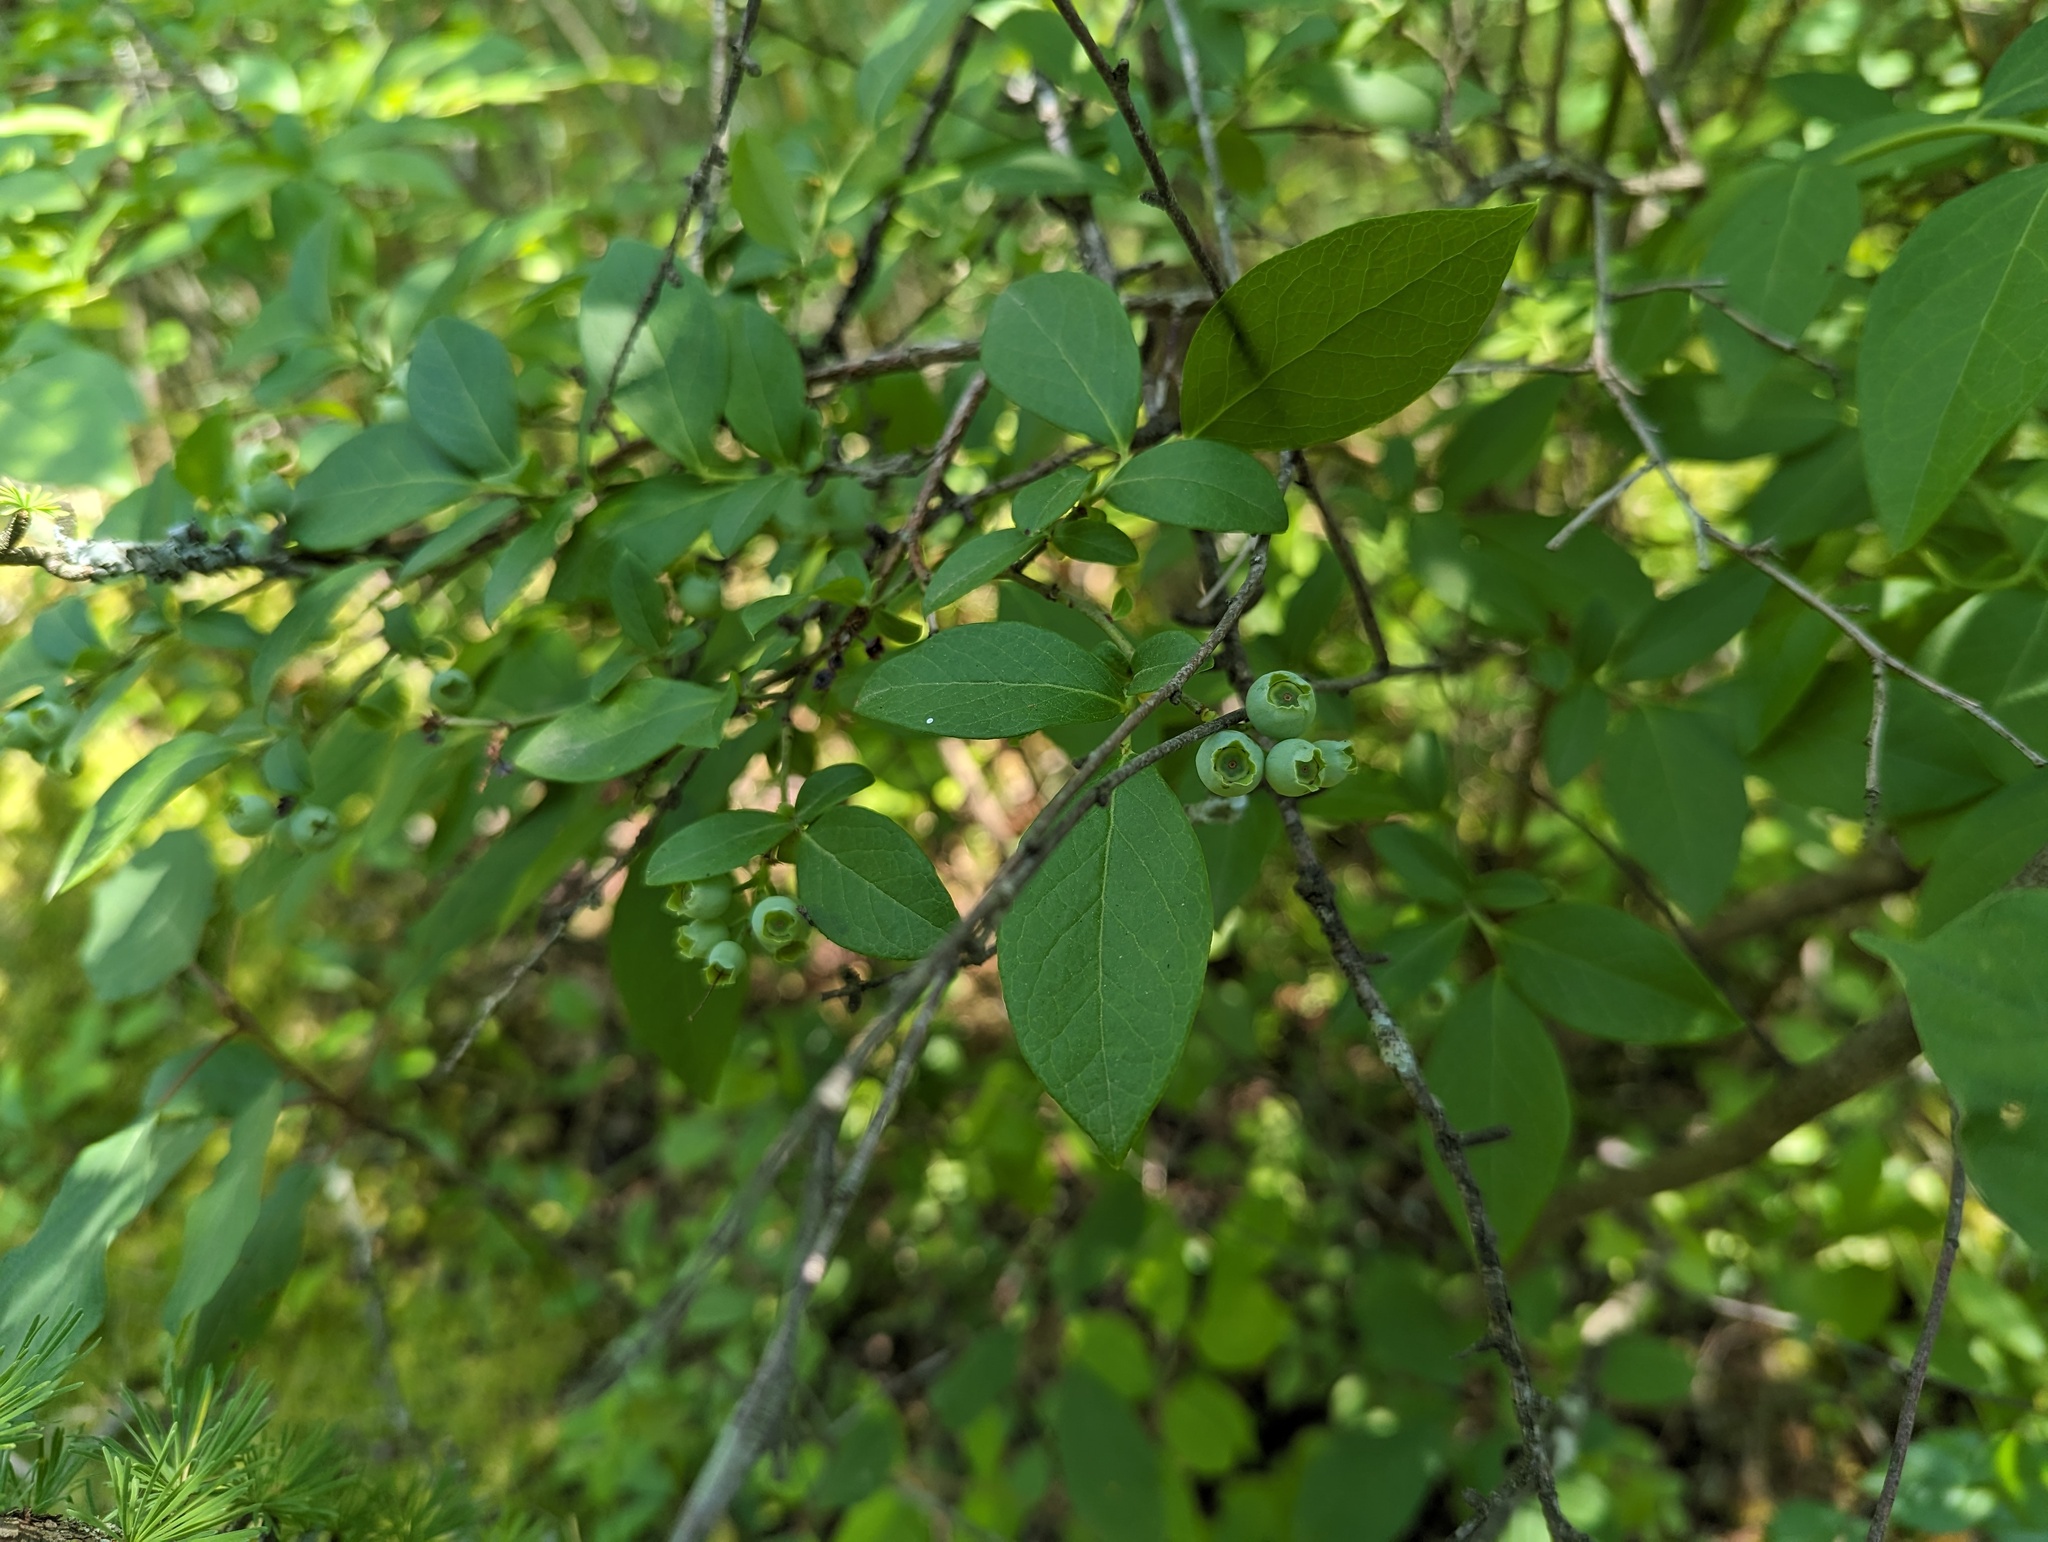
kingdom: Plantae
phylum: Tracheophyta
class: Magnoliopsida
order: Ericales
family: Ericaceae
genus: Vaccinium
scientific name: Vaccinium corymbosum
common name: Blueberry
